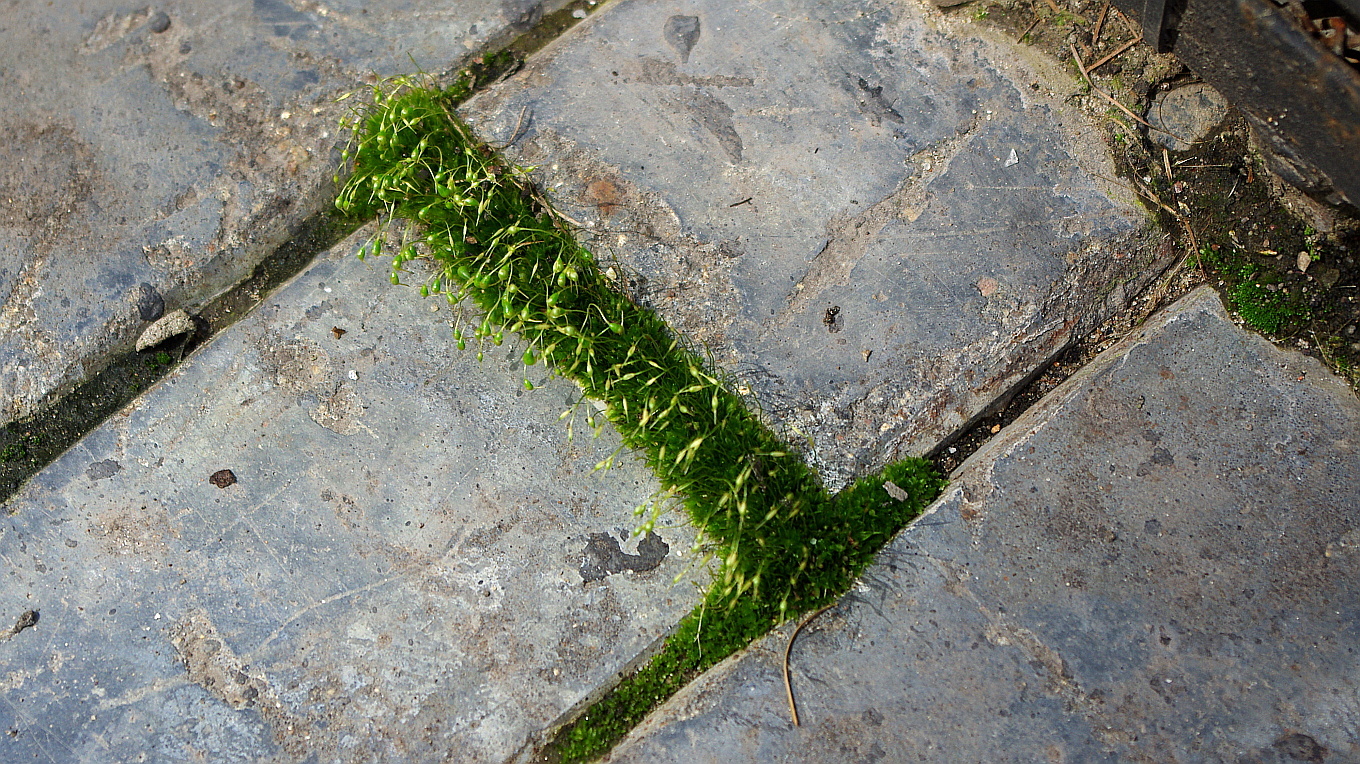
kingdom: Plantae
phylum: Bryophyta
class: Bryopsida
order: Funariales
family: Funariaceae
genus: Funaria
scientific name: Funaria hygrometrica
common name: Common cord moss
